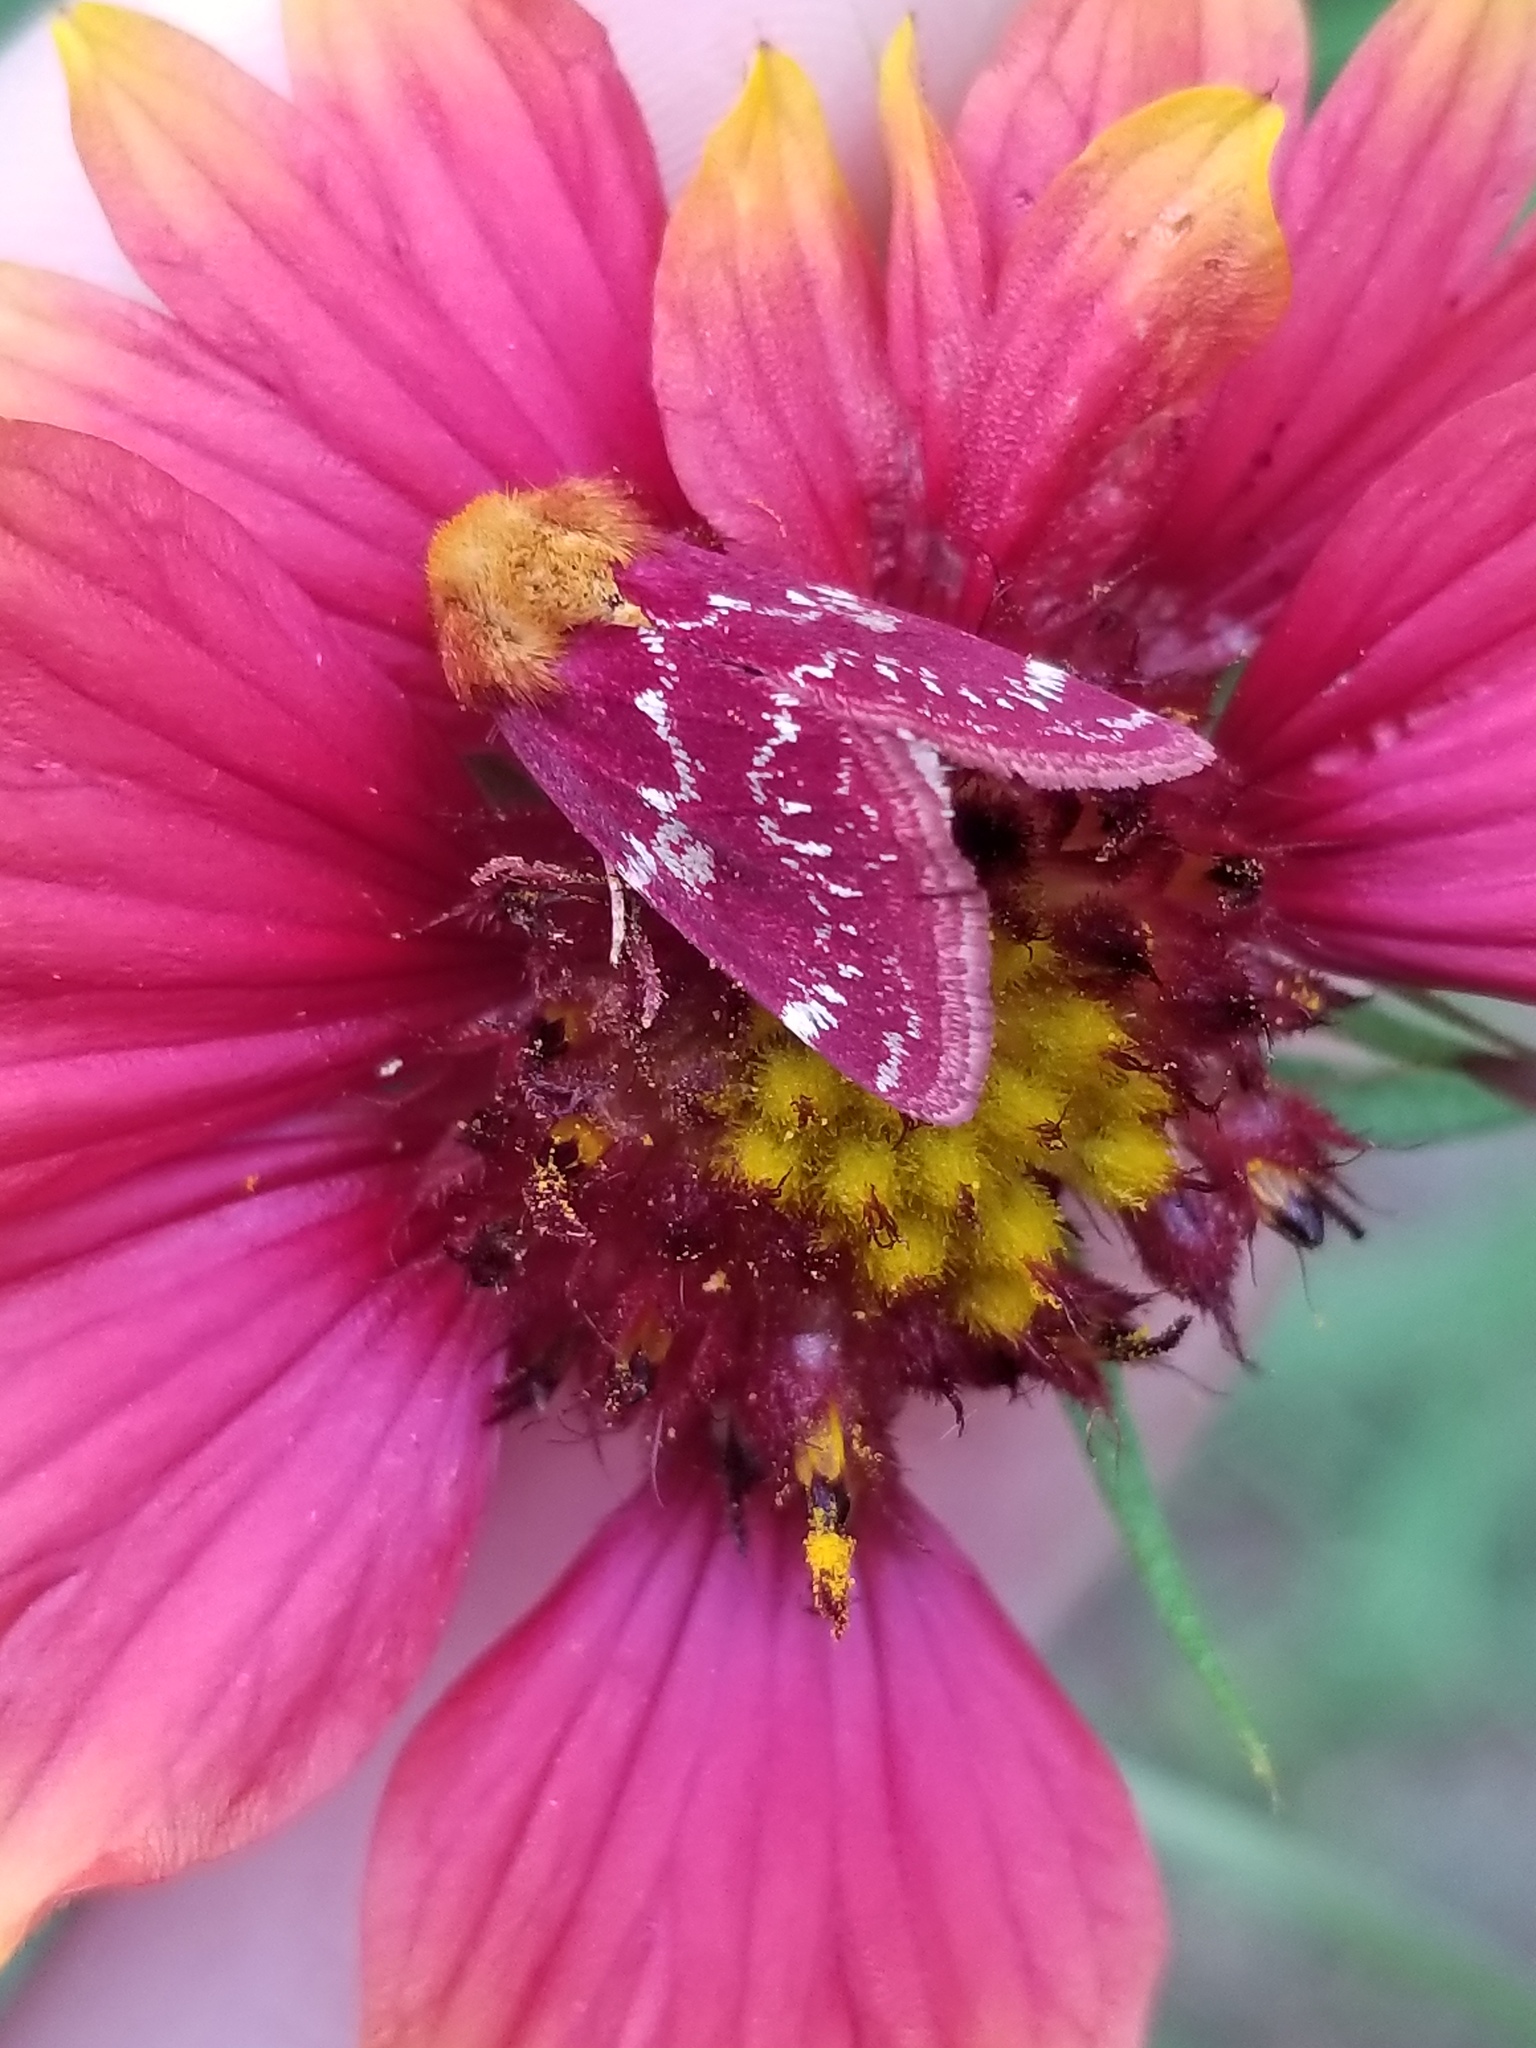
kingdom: Animalia
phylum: Arthropoda
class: Insecta
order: Lepidoptera
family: Noctuidae
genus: Schinia
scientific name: Schinia volupia
